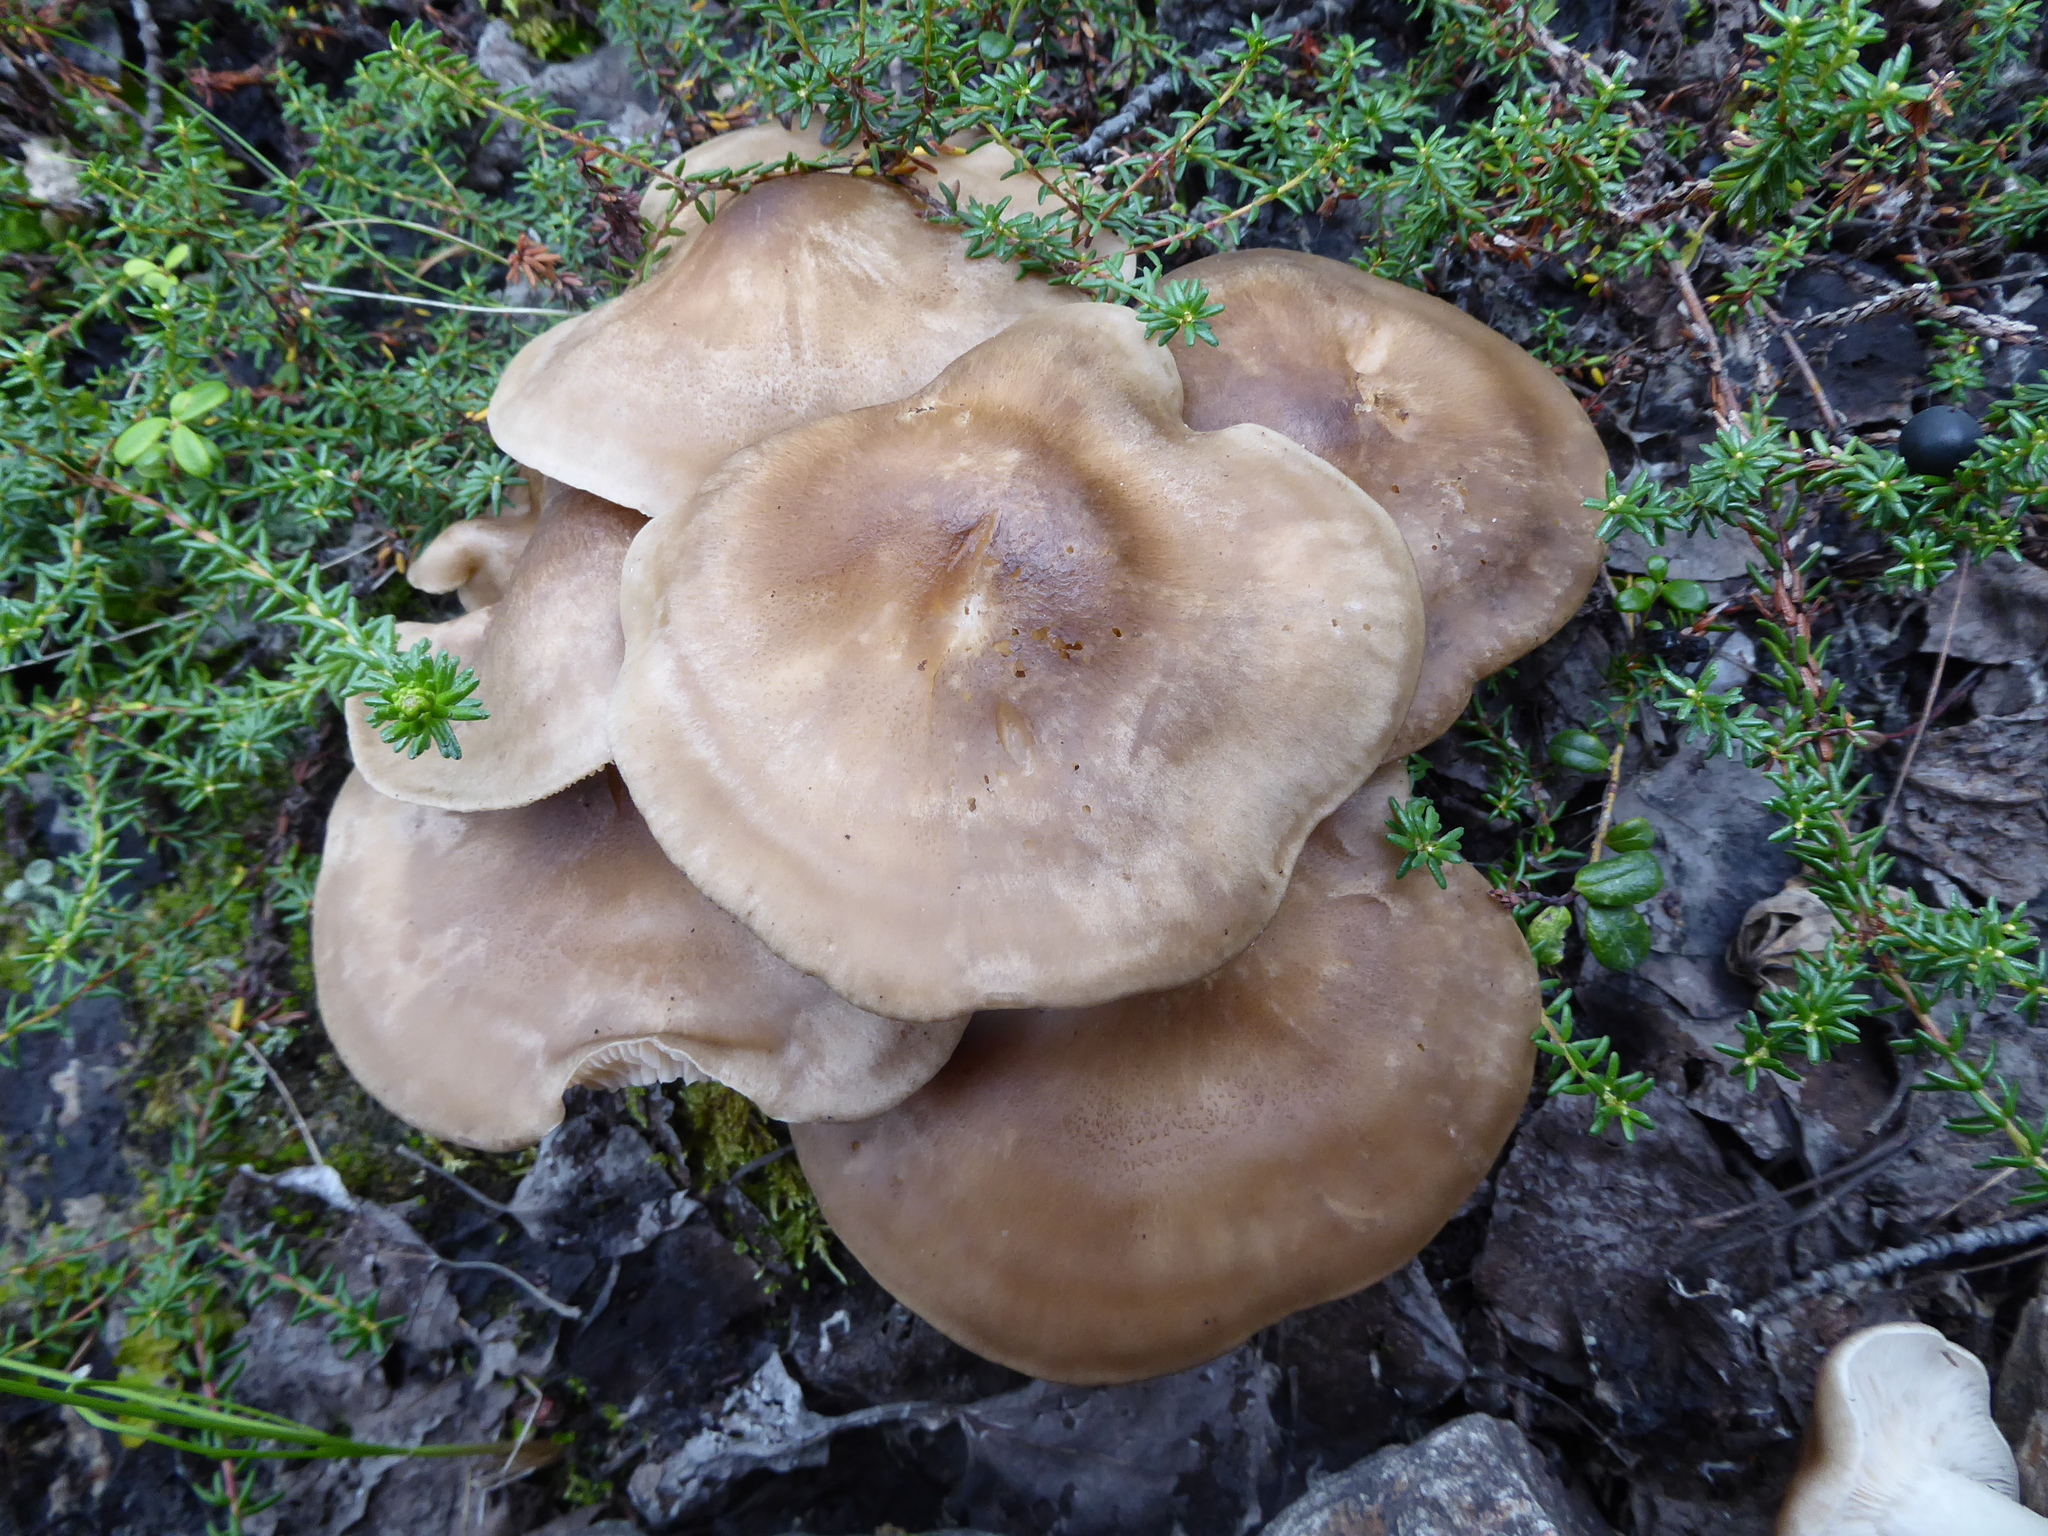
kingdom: Fungi
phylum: Basidiomycota
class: Agaricomycetes
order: Agaricales
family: Lyophyllaceae
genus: Lyophyllum
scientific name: Lyophyllum decastes
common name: Clustered domecap
